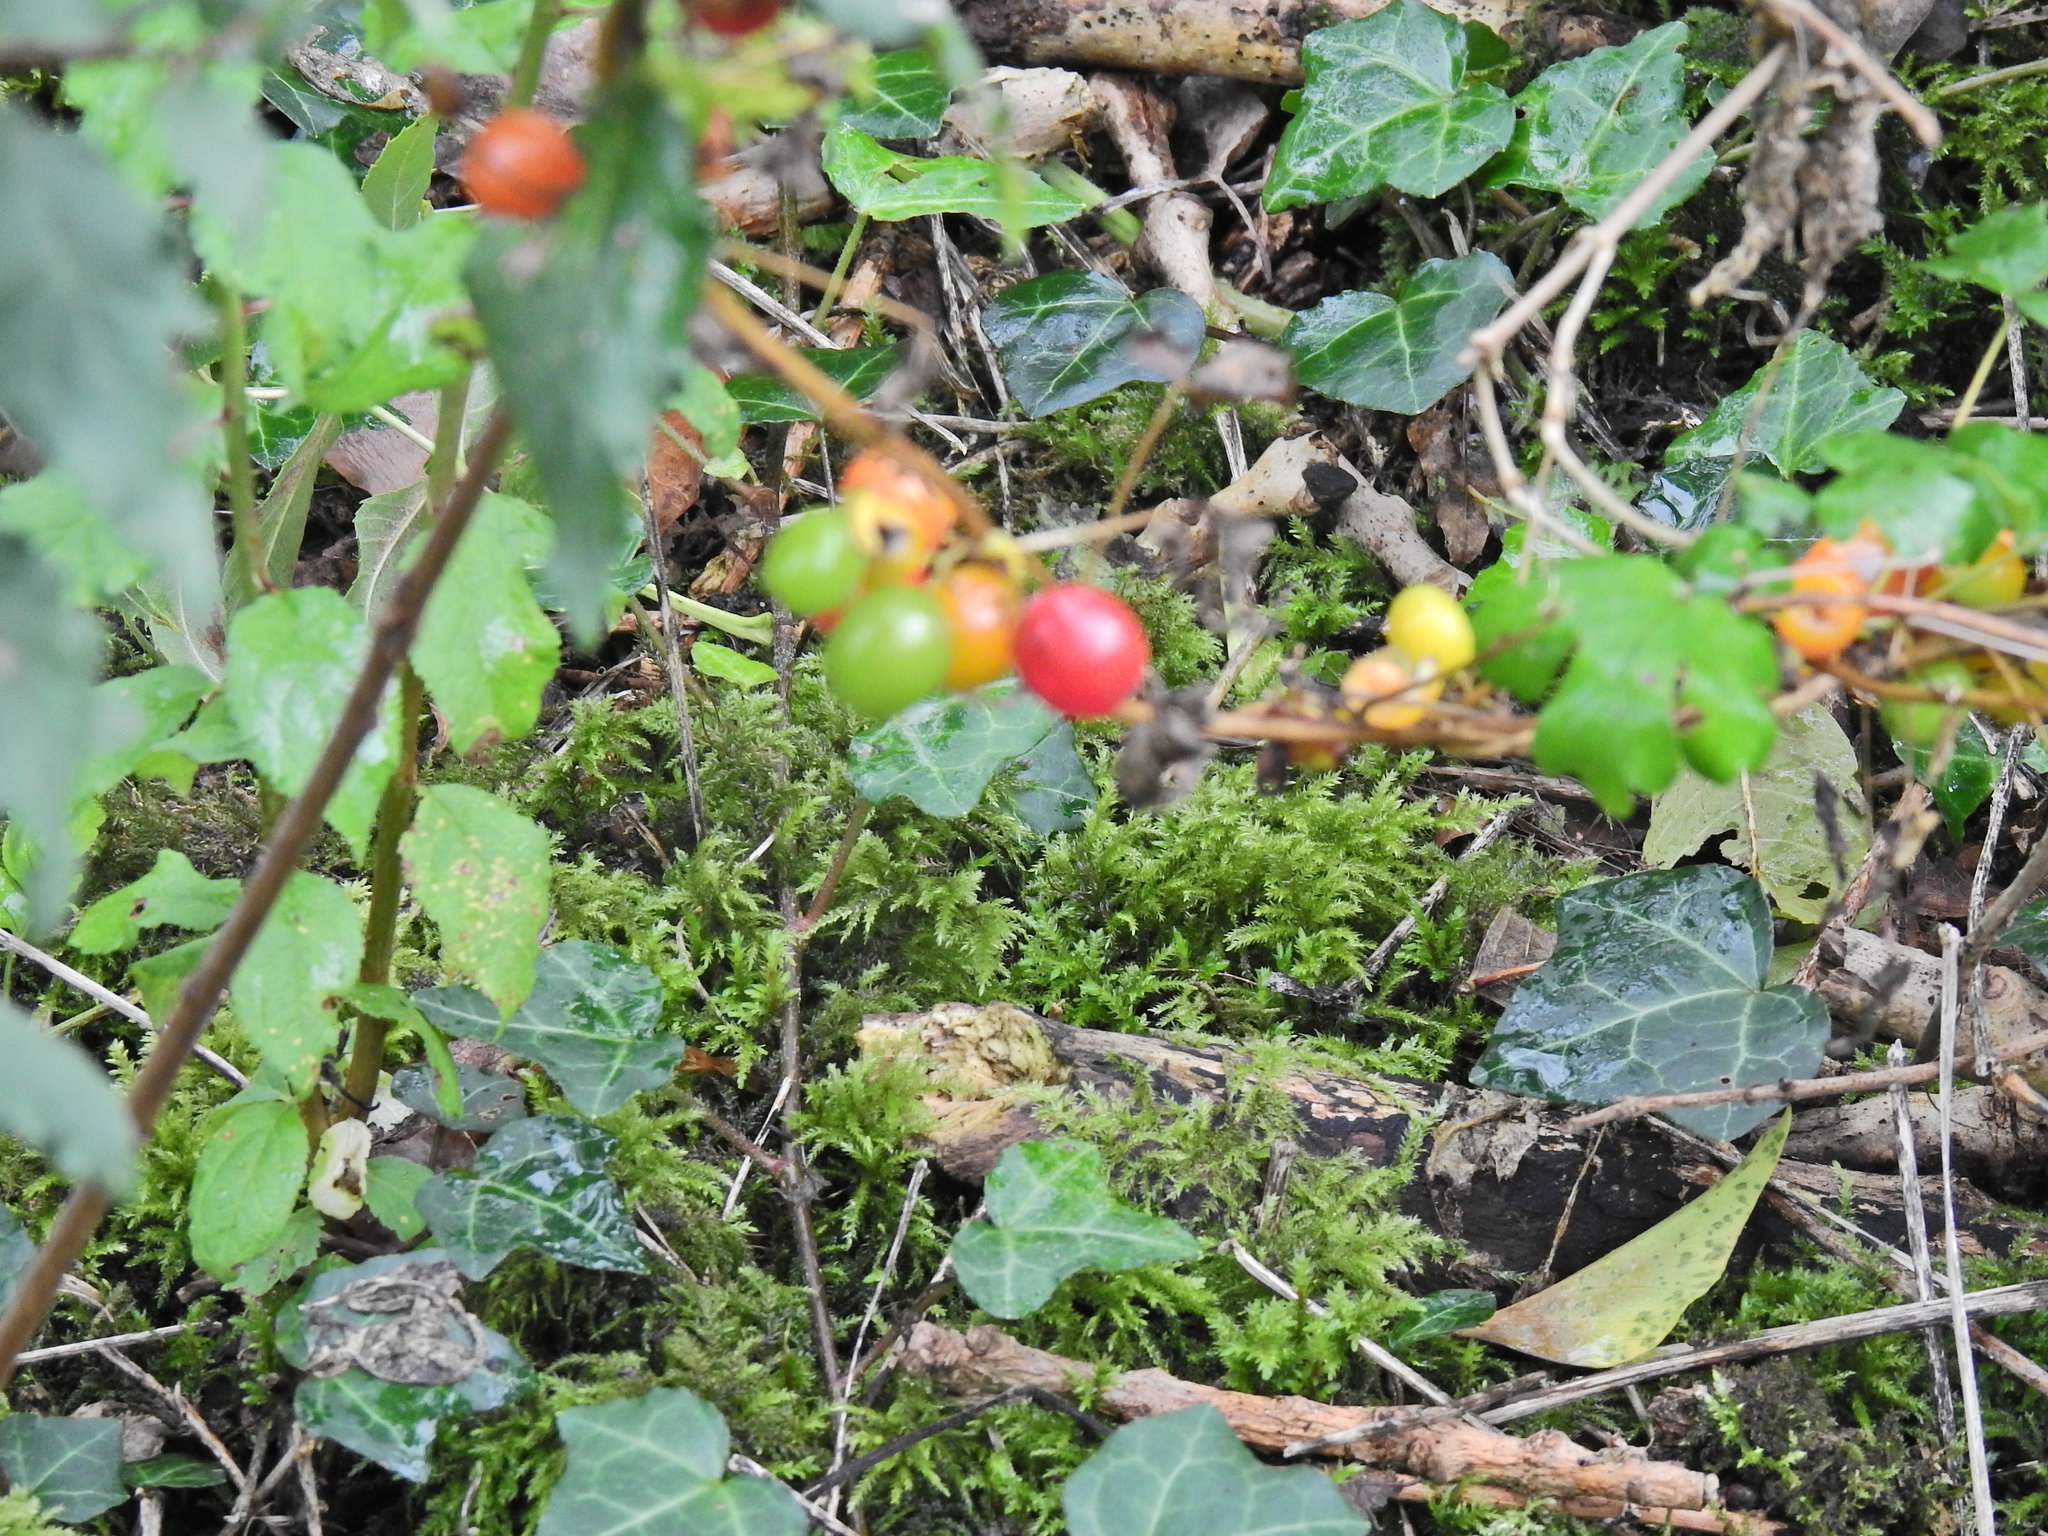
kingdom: Plantae
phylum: Tracheophyta
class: Liliopsida
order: Dioscoreales
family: Dioscoreaceae
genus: Dioscorea
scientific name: Dioscorea communis
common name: Black-bindweed
